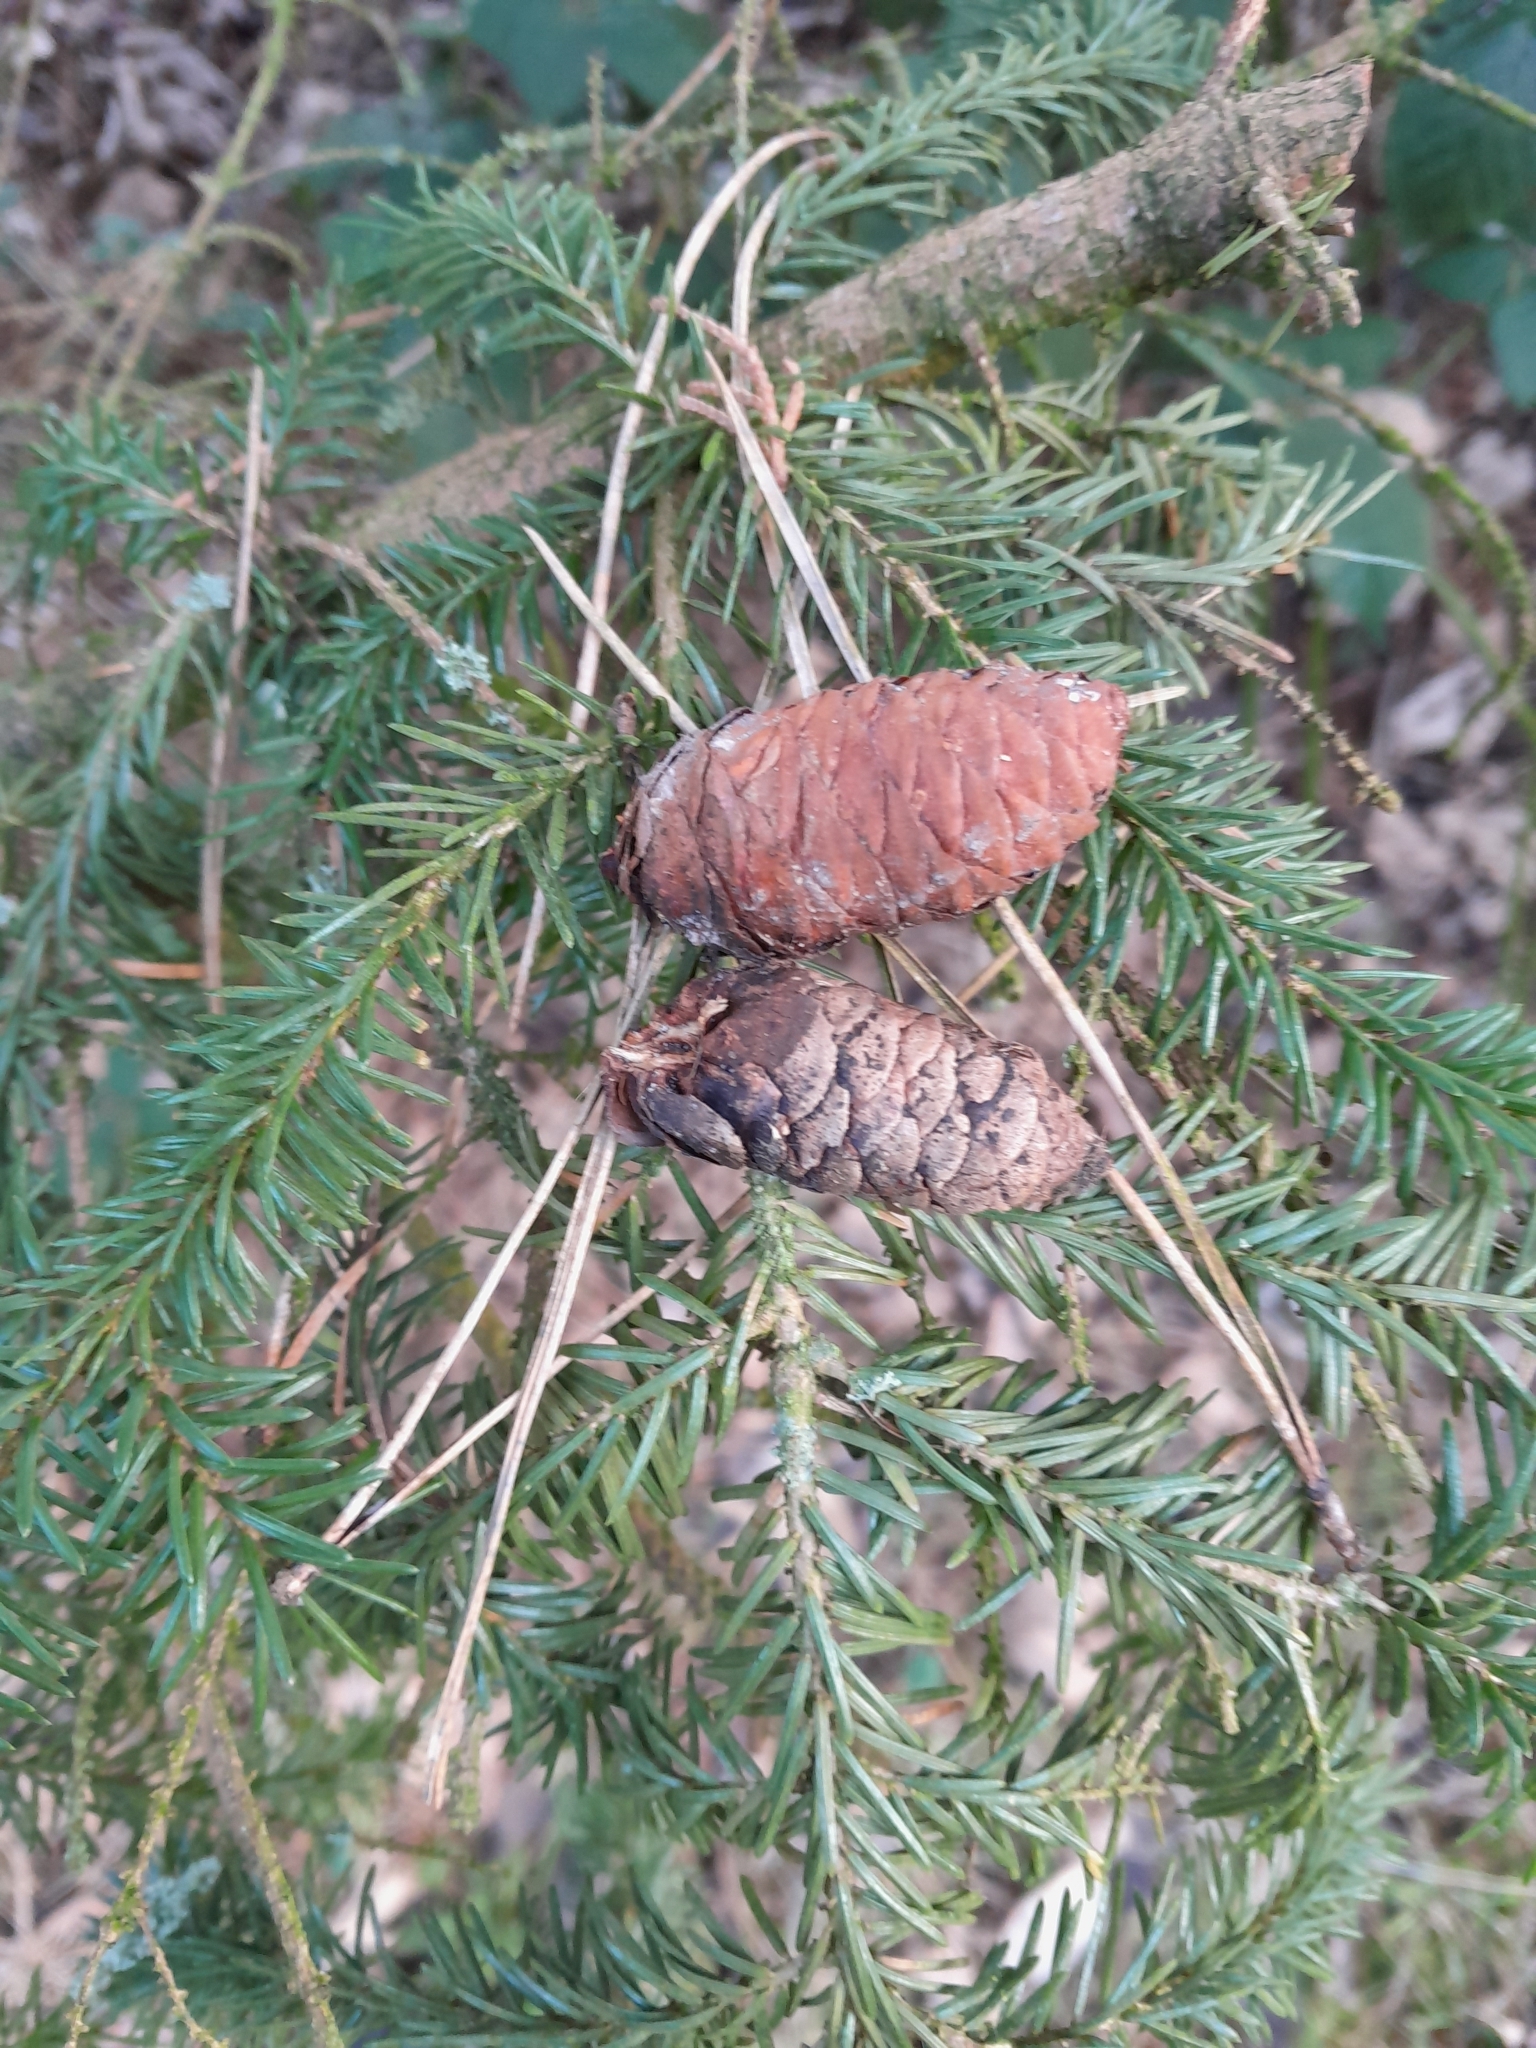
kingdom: Plantae
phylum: Tracheophyta
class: Pinopsida
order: Pinales
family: Pinaceae
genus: Picea
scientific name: Picea omorika
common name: Serbian spruce
